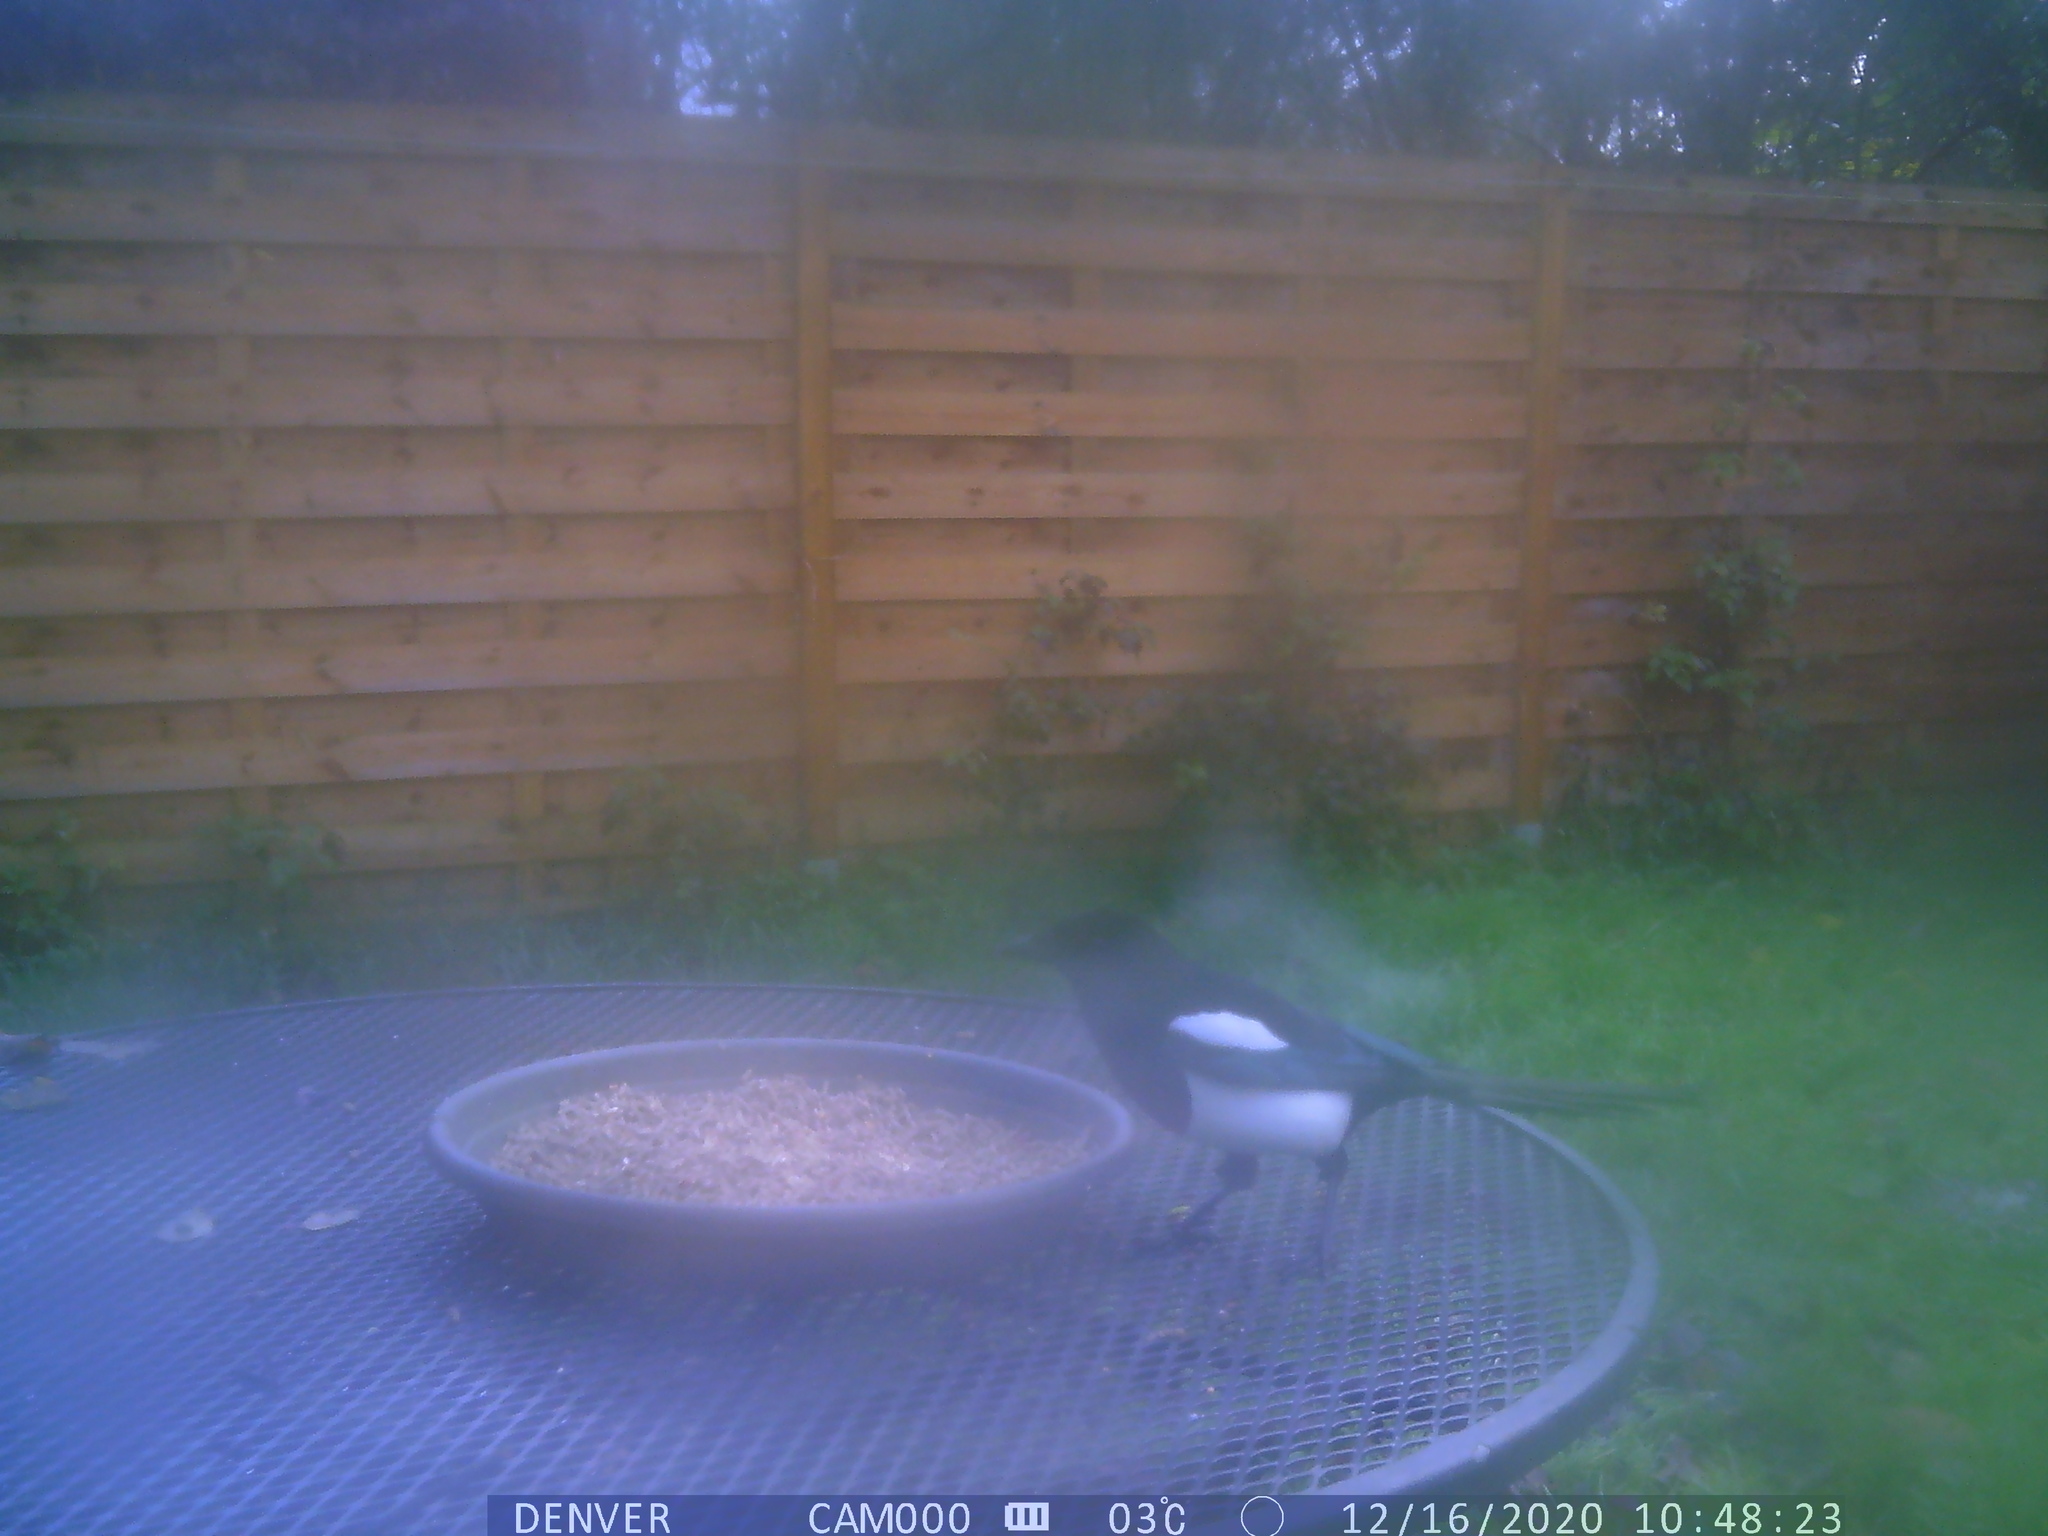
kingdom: Animalia
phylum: Chordata
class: Aves
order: Passeriformes
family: Corvidae
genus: Pica
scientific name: Pica pica
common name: Eurasian magpie
